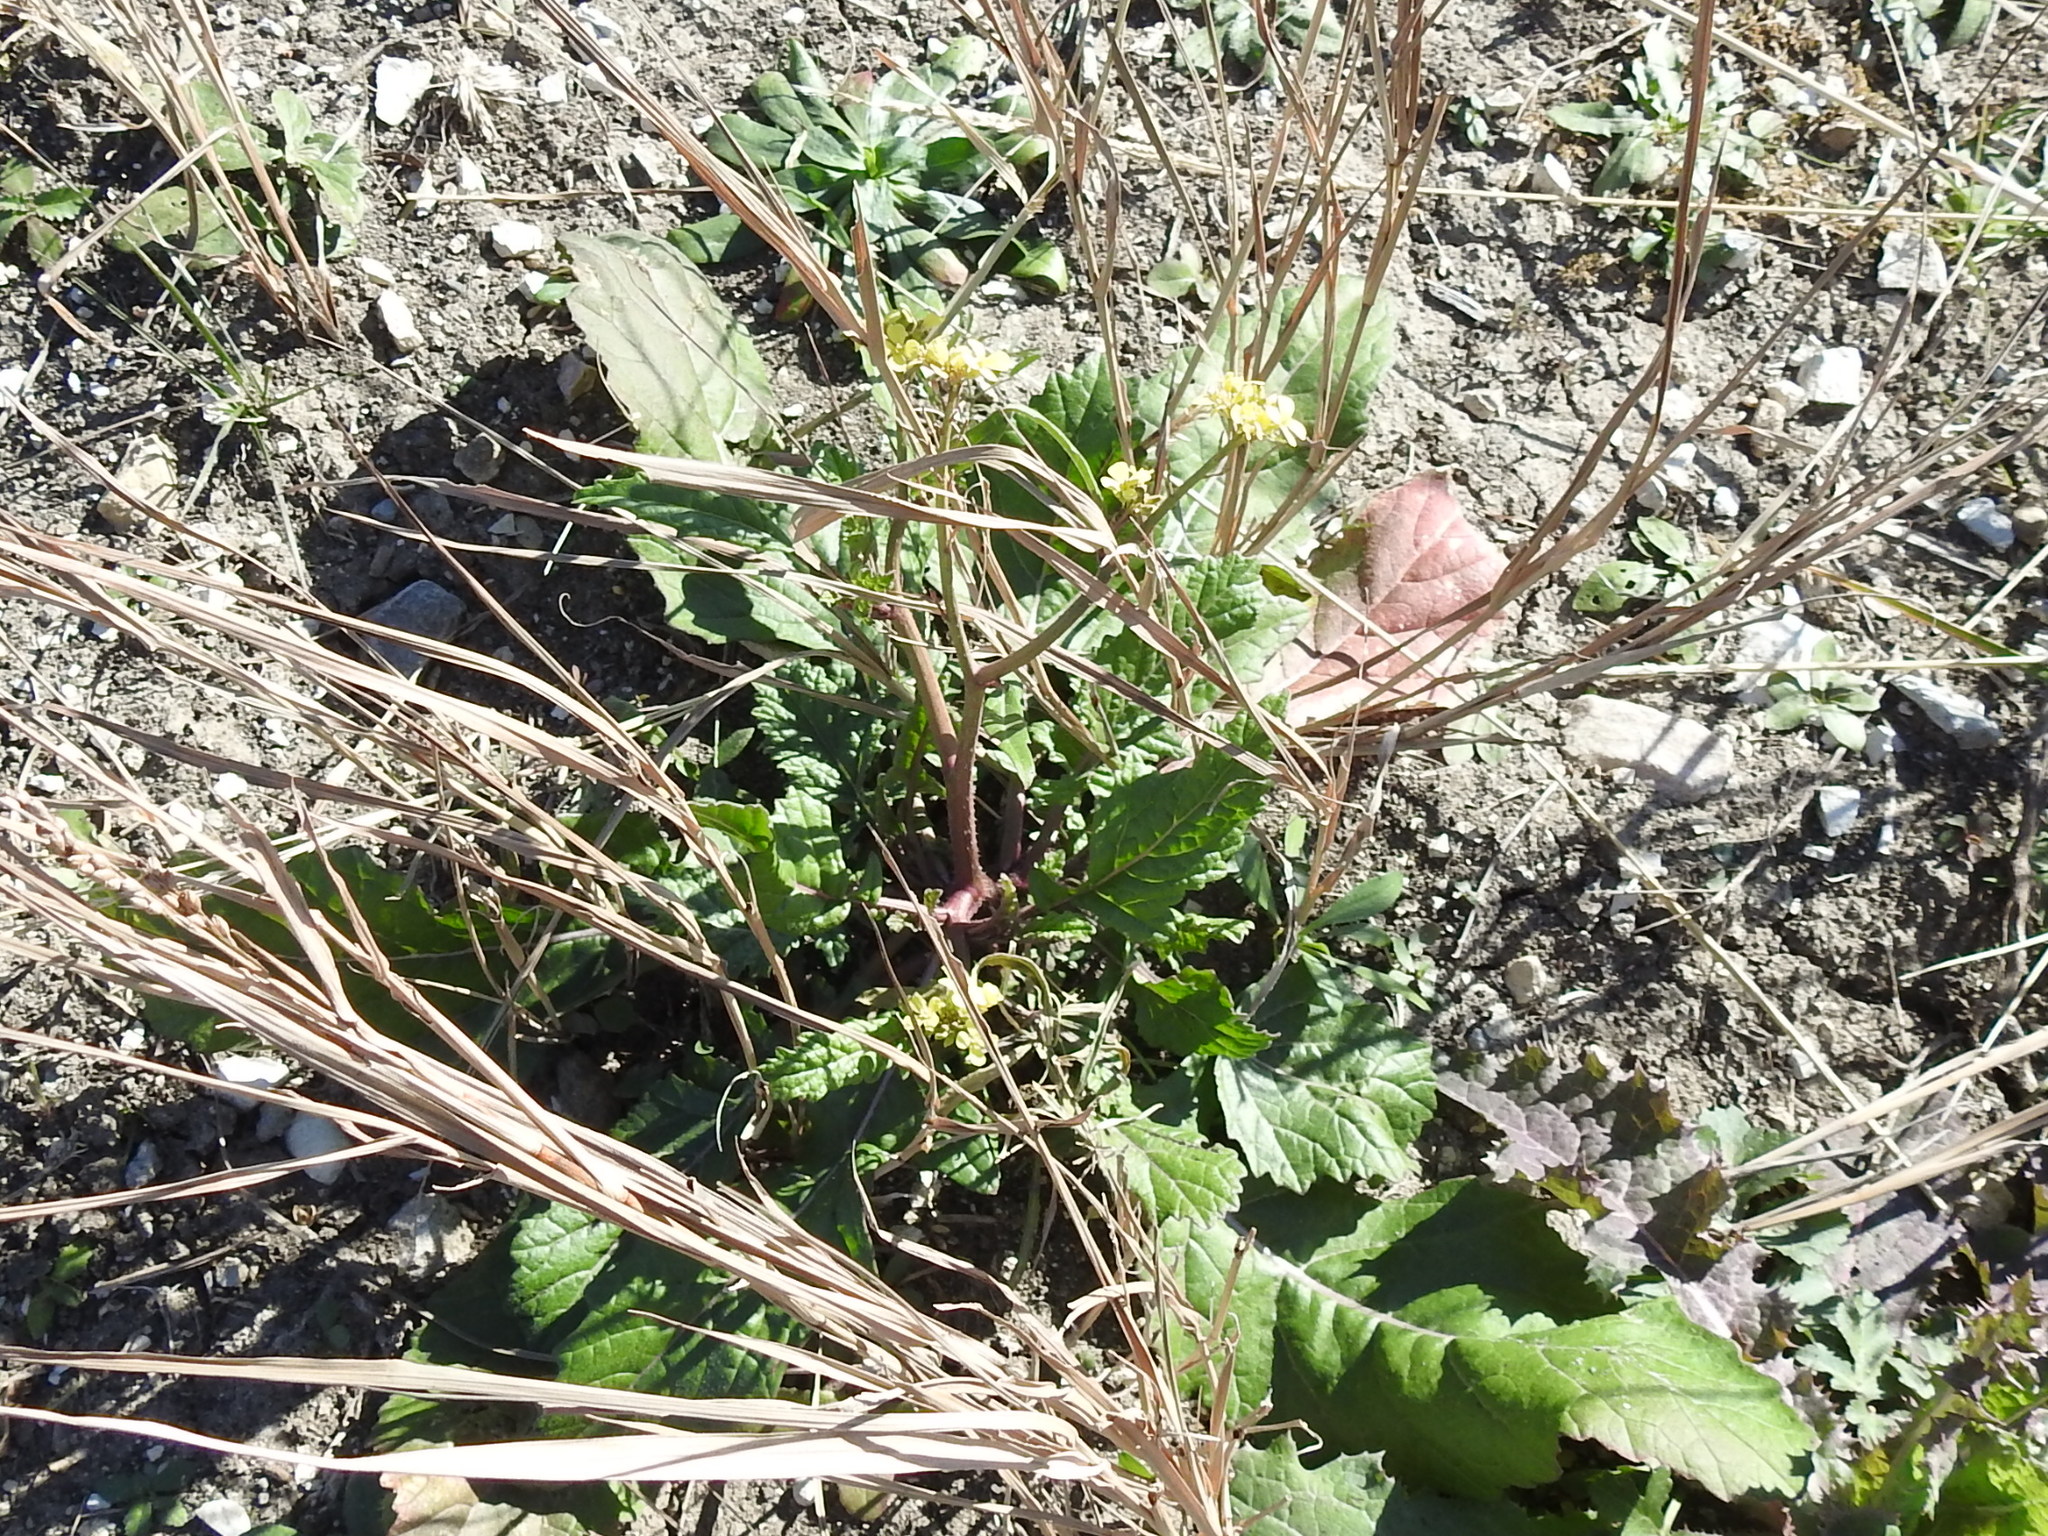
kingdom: Plantae
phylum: Tracheophyta
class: Magnoliopsida
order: Brassicales
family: Brassicaceae
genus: Rapistrum
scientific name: Rapistrum rugosum
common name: Annual bastardcabbage
